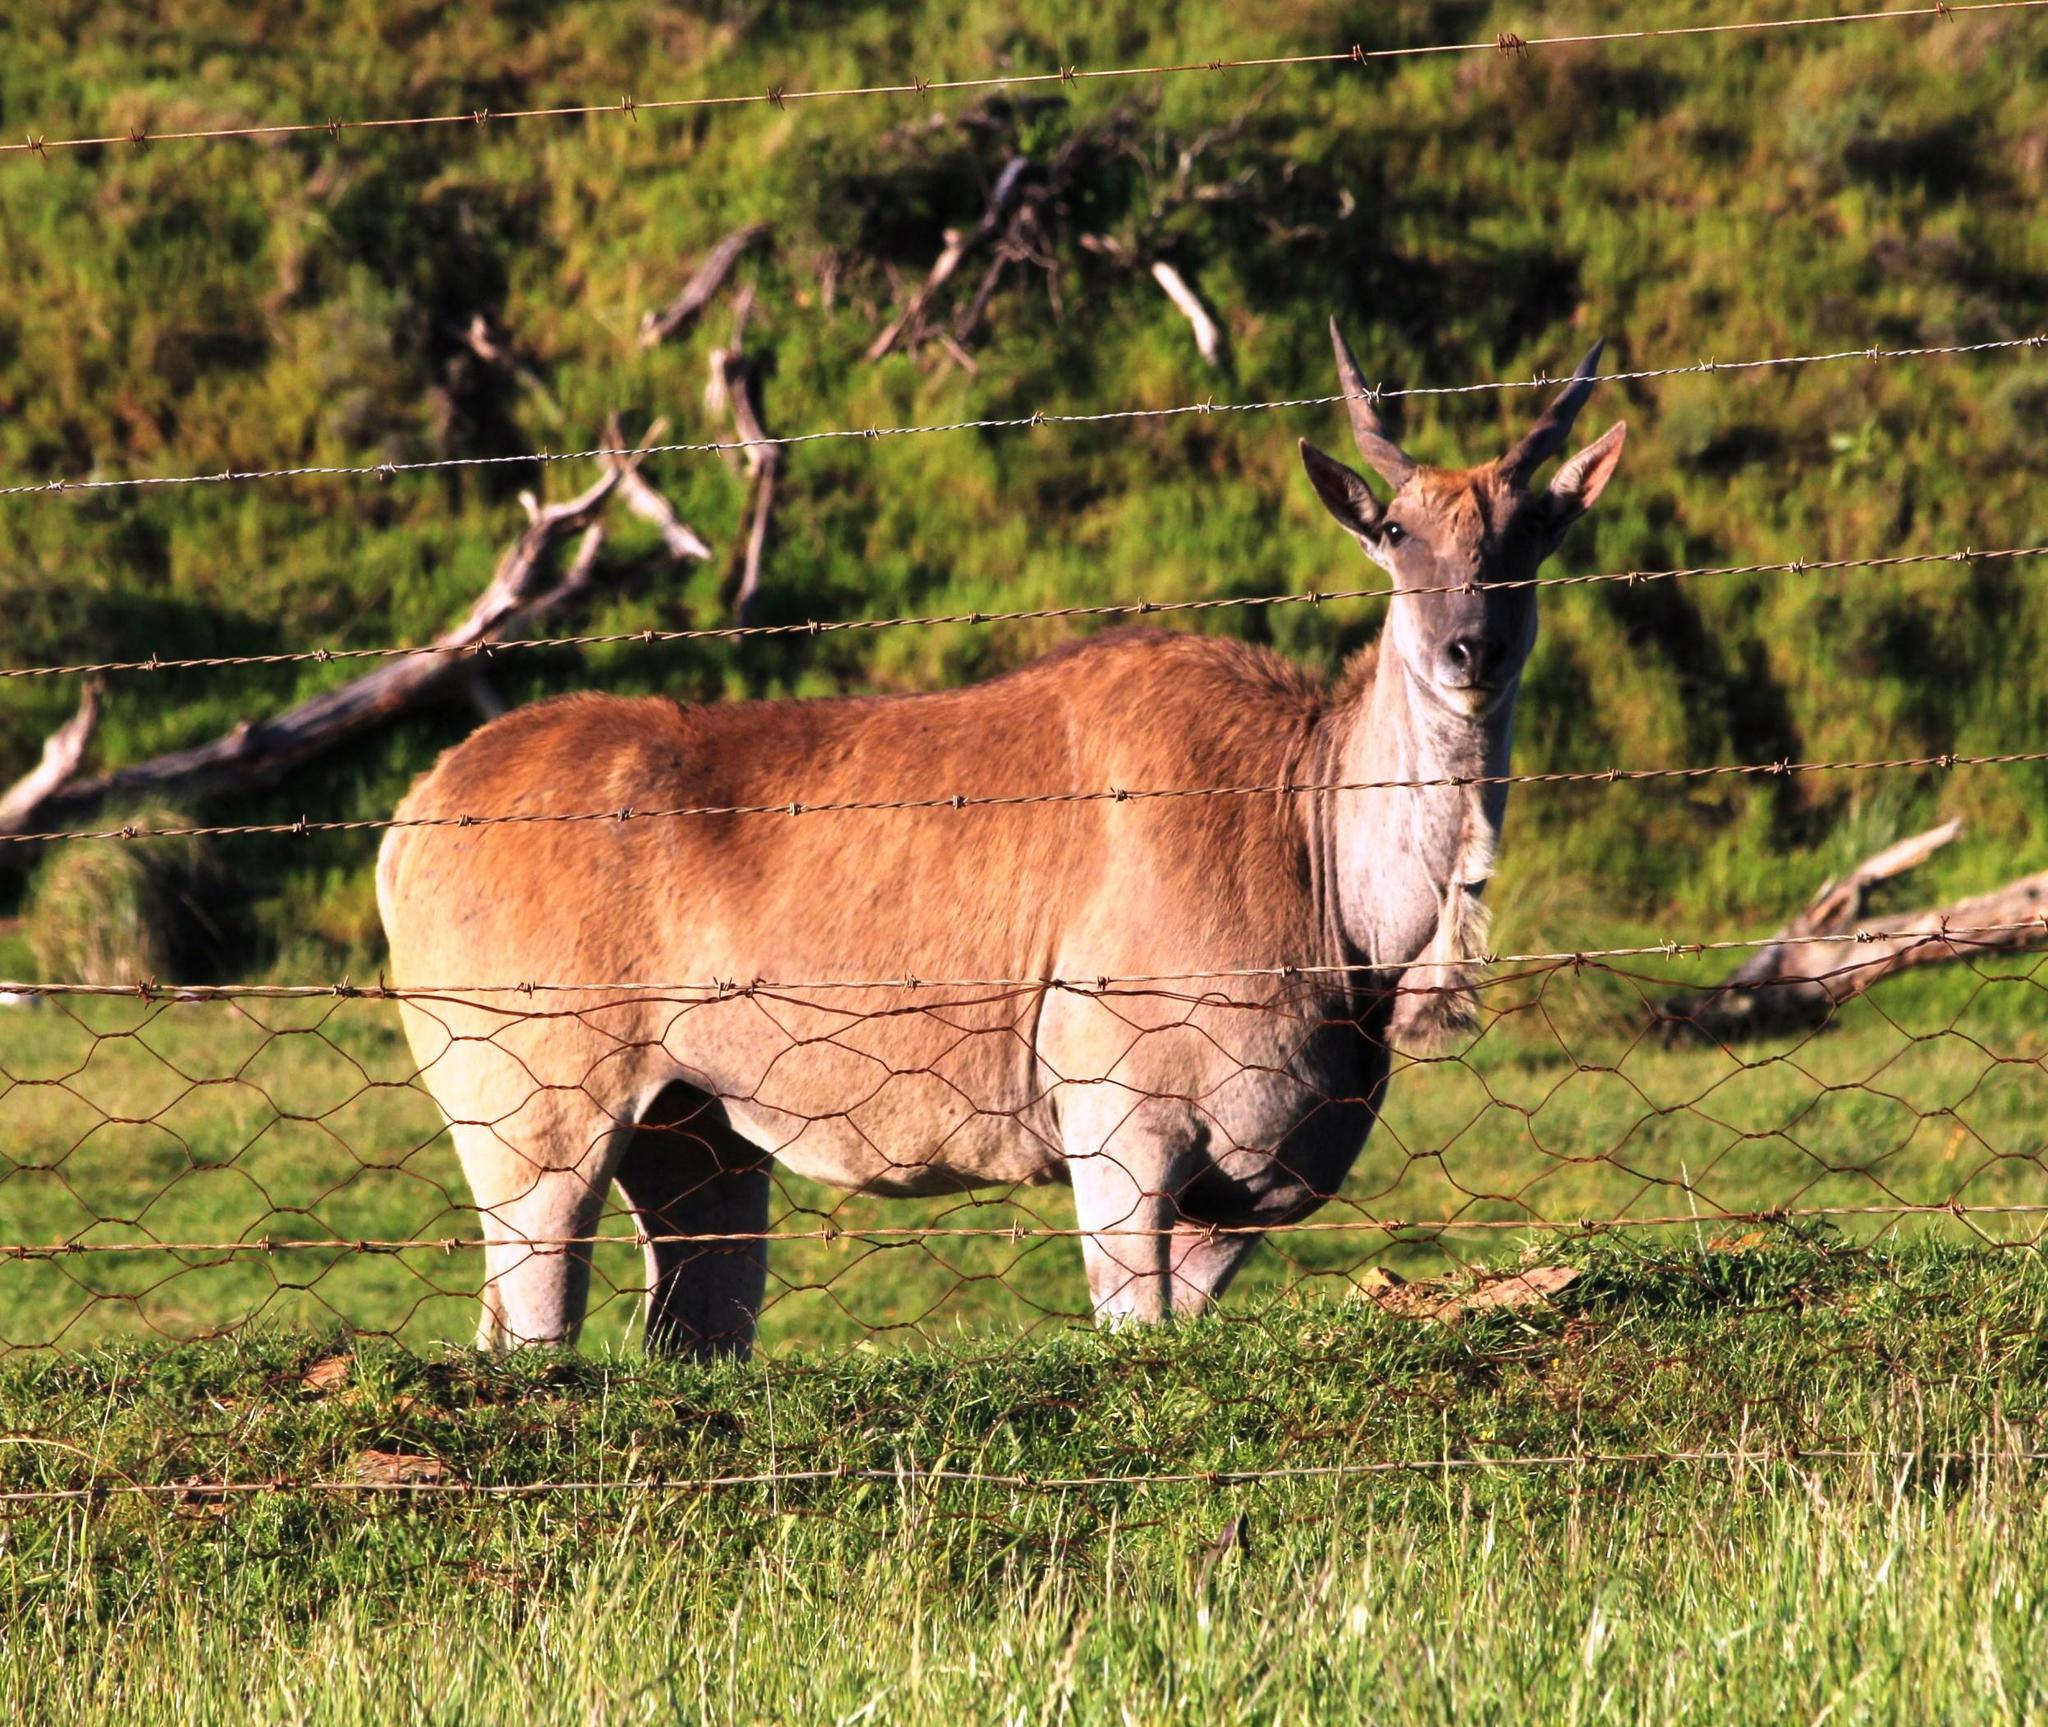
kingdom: Animalia
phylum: Chordata
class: Mammalia
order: Artiodactyla
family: Bovidae
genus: Taurotragus
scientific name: Taurotragus oryx
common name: Common eland
